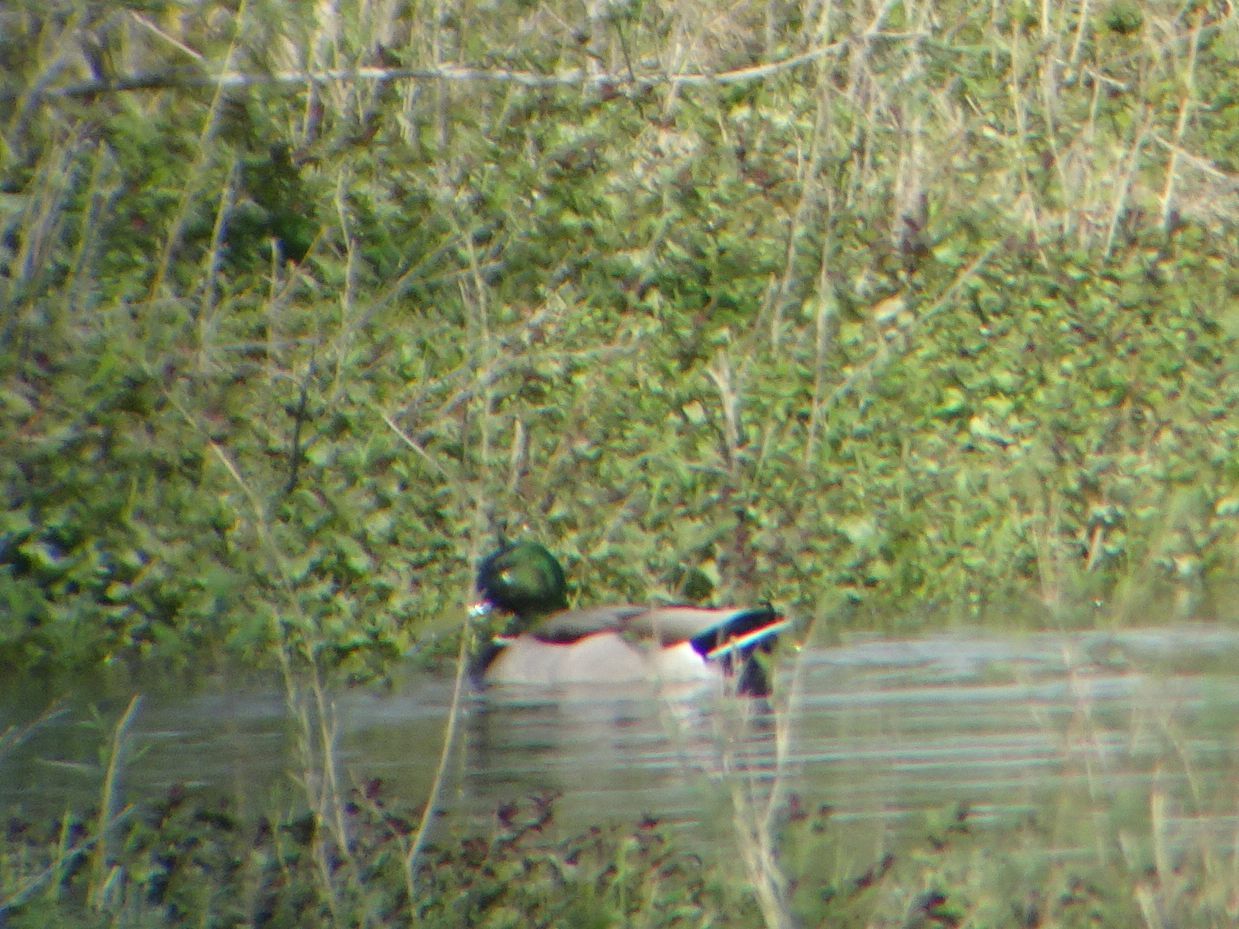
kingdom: Animalia
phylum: Chordata
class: Aves
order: Anseriformes
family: Anatidae
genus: Anas
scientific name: Anas platyrhynchos
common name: Mallard
